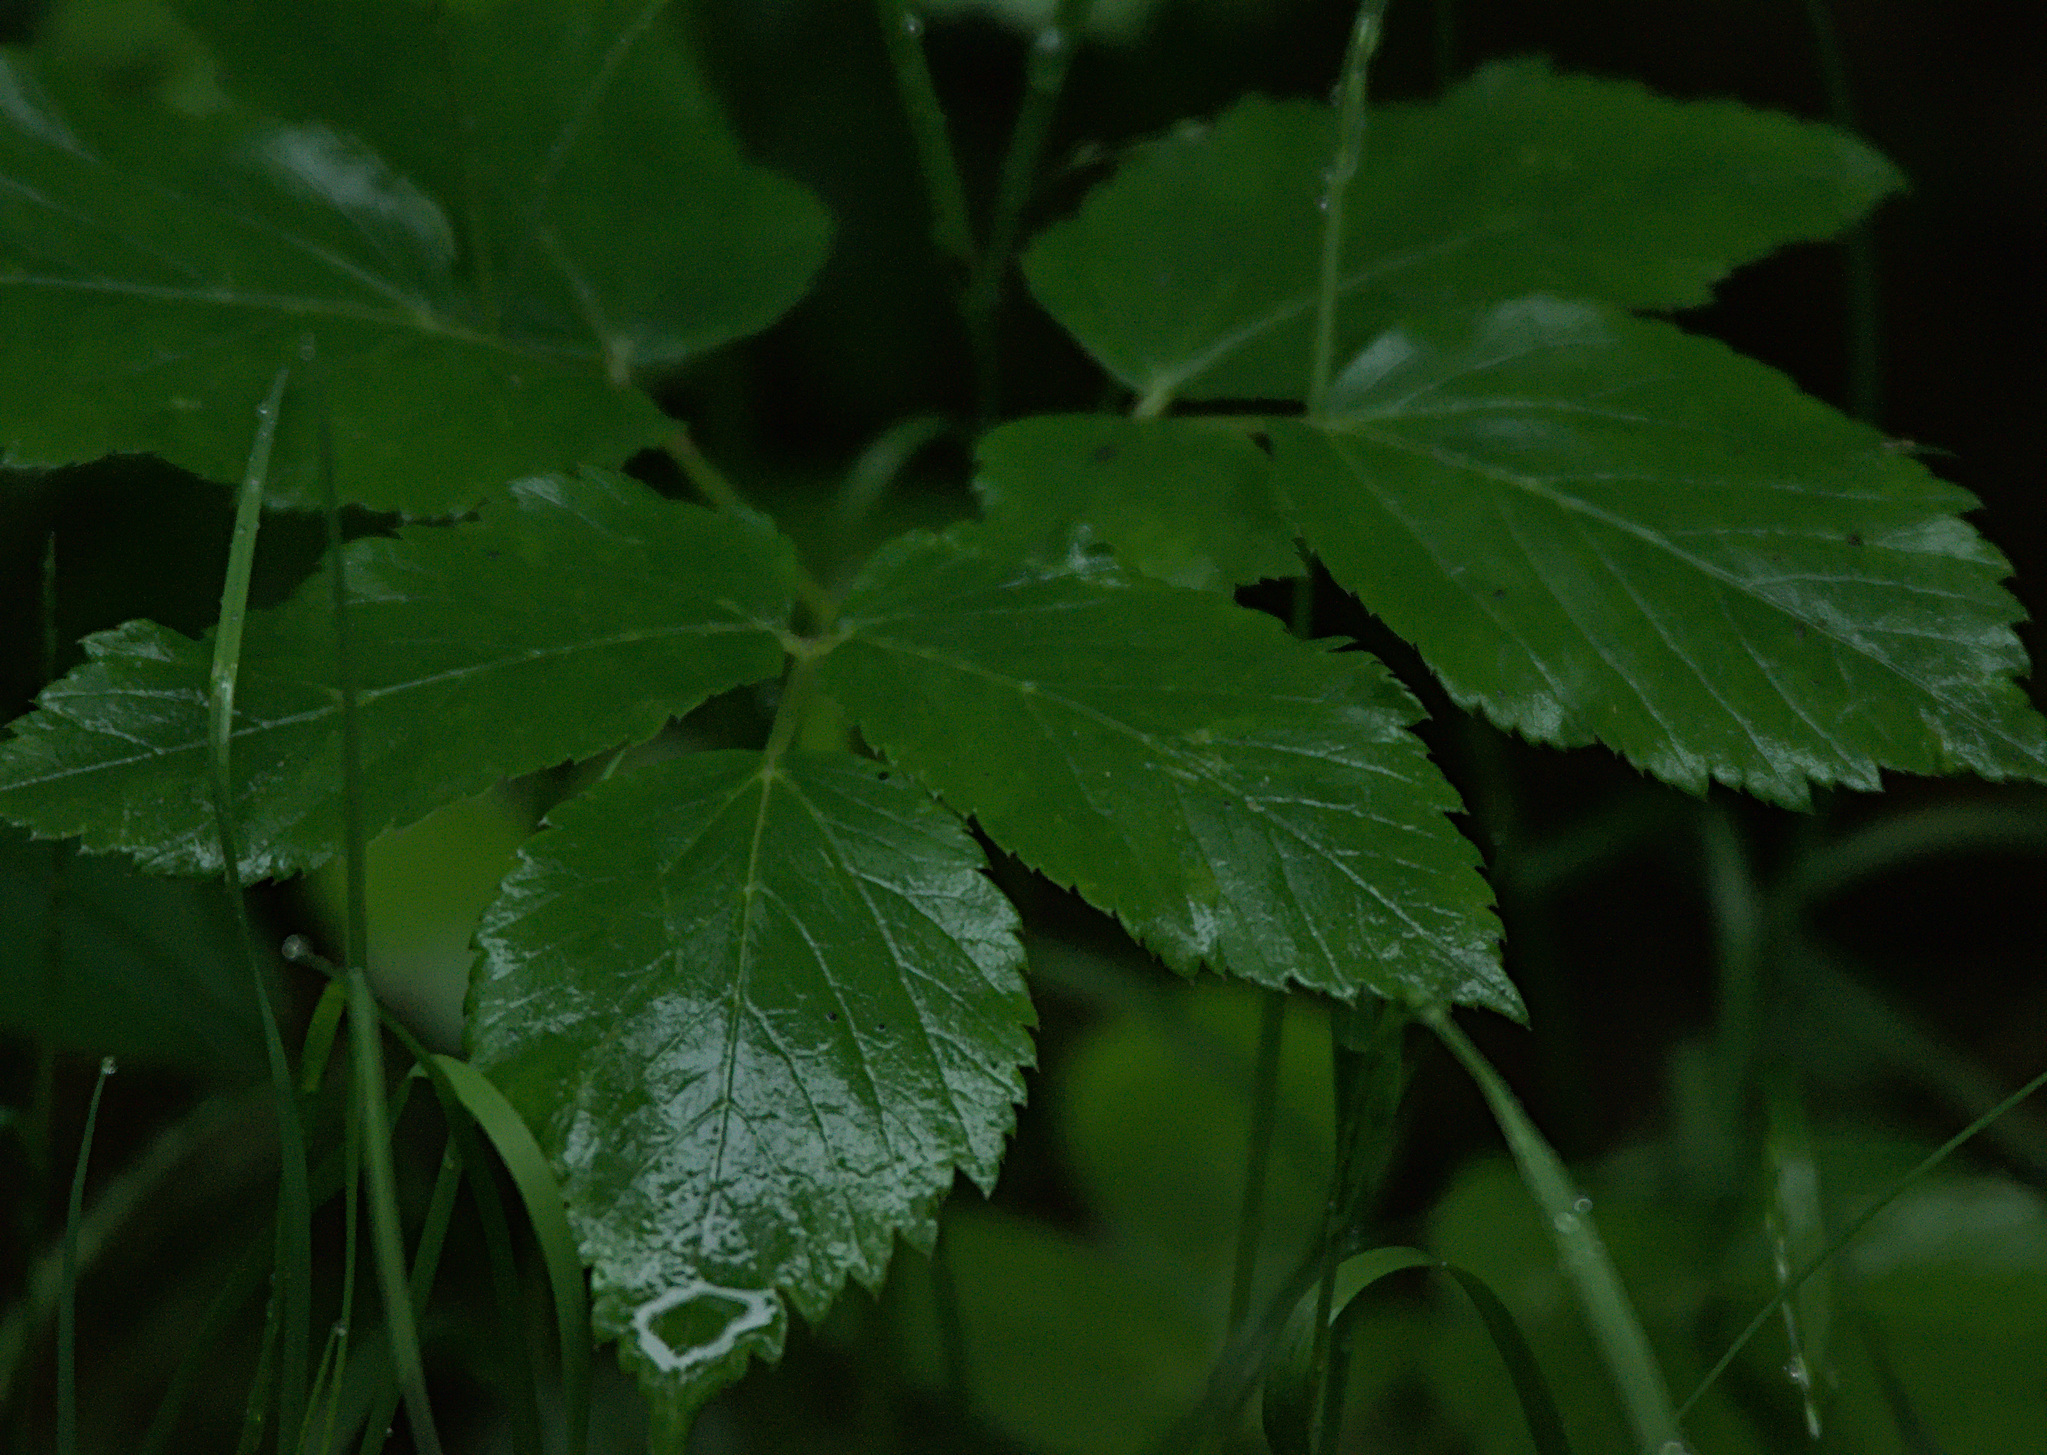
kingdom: Plantae
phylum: Tracheophyta
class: Magnoliopsida
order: Apiales
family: Apiaceae
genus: Aegopodium
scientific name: Aegopodium podagraria
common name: Ground-elder
